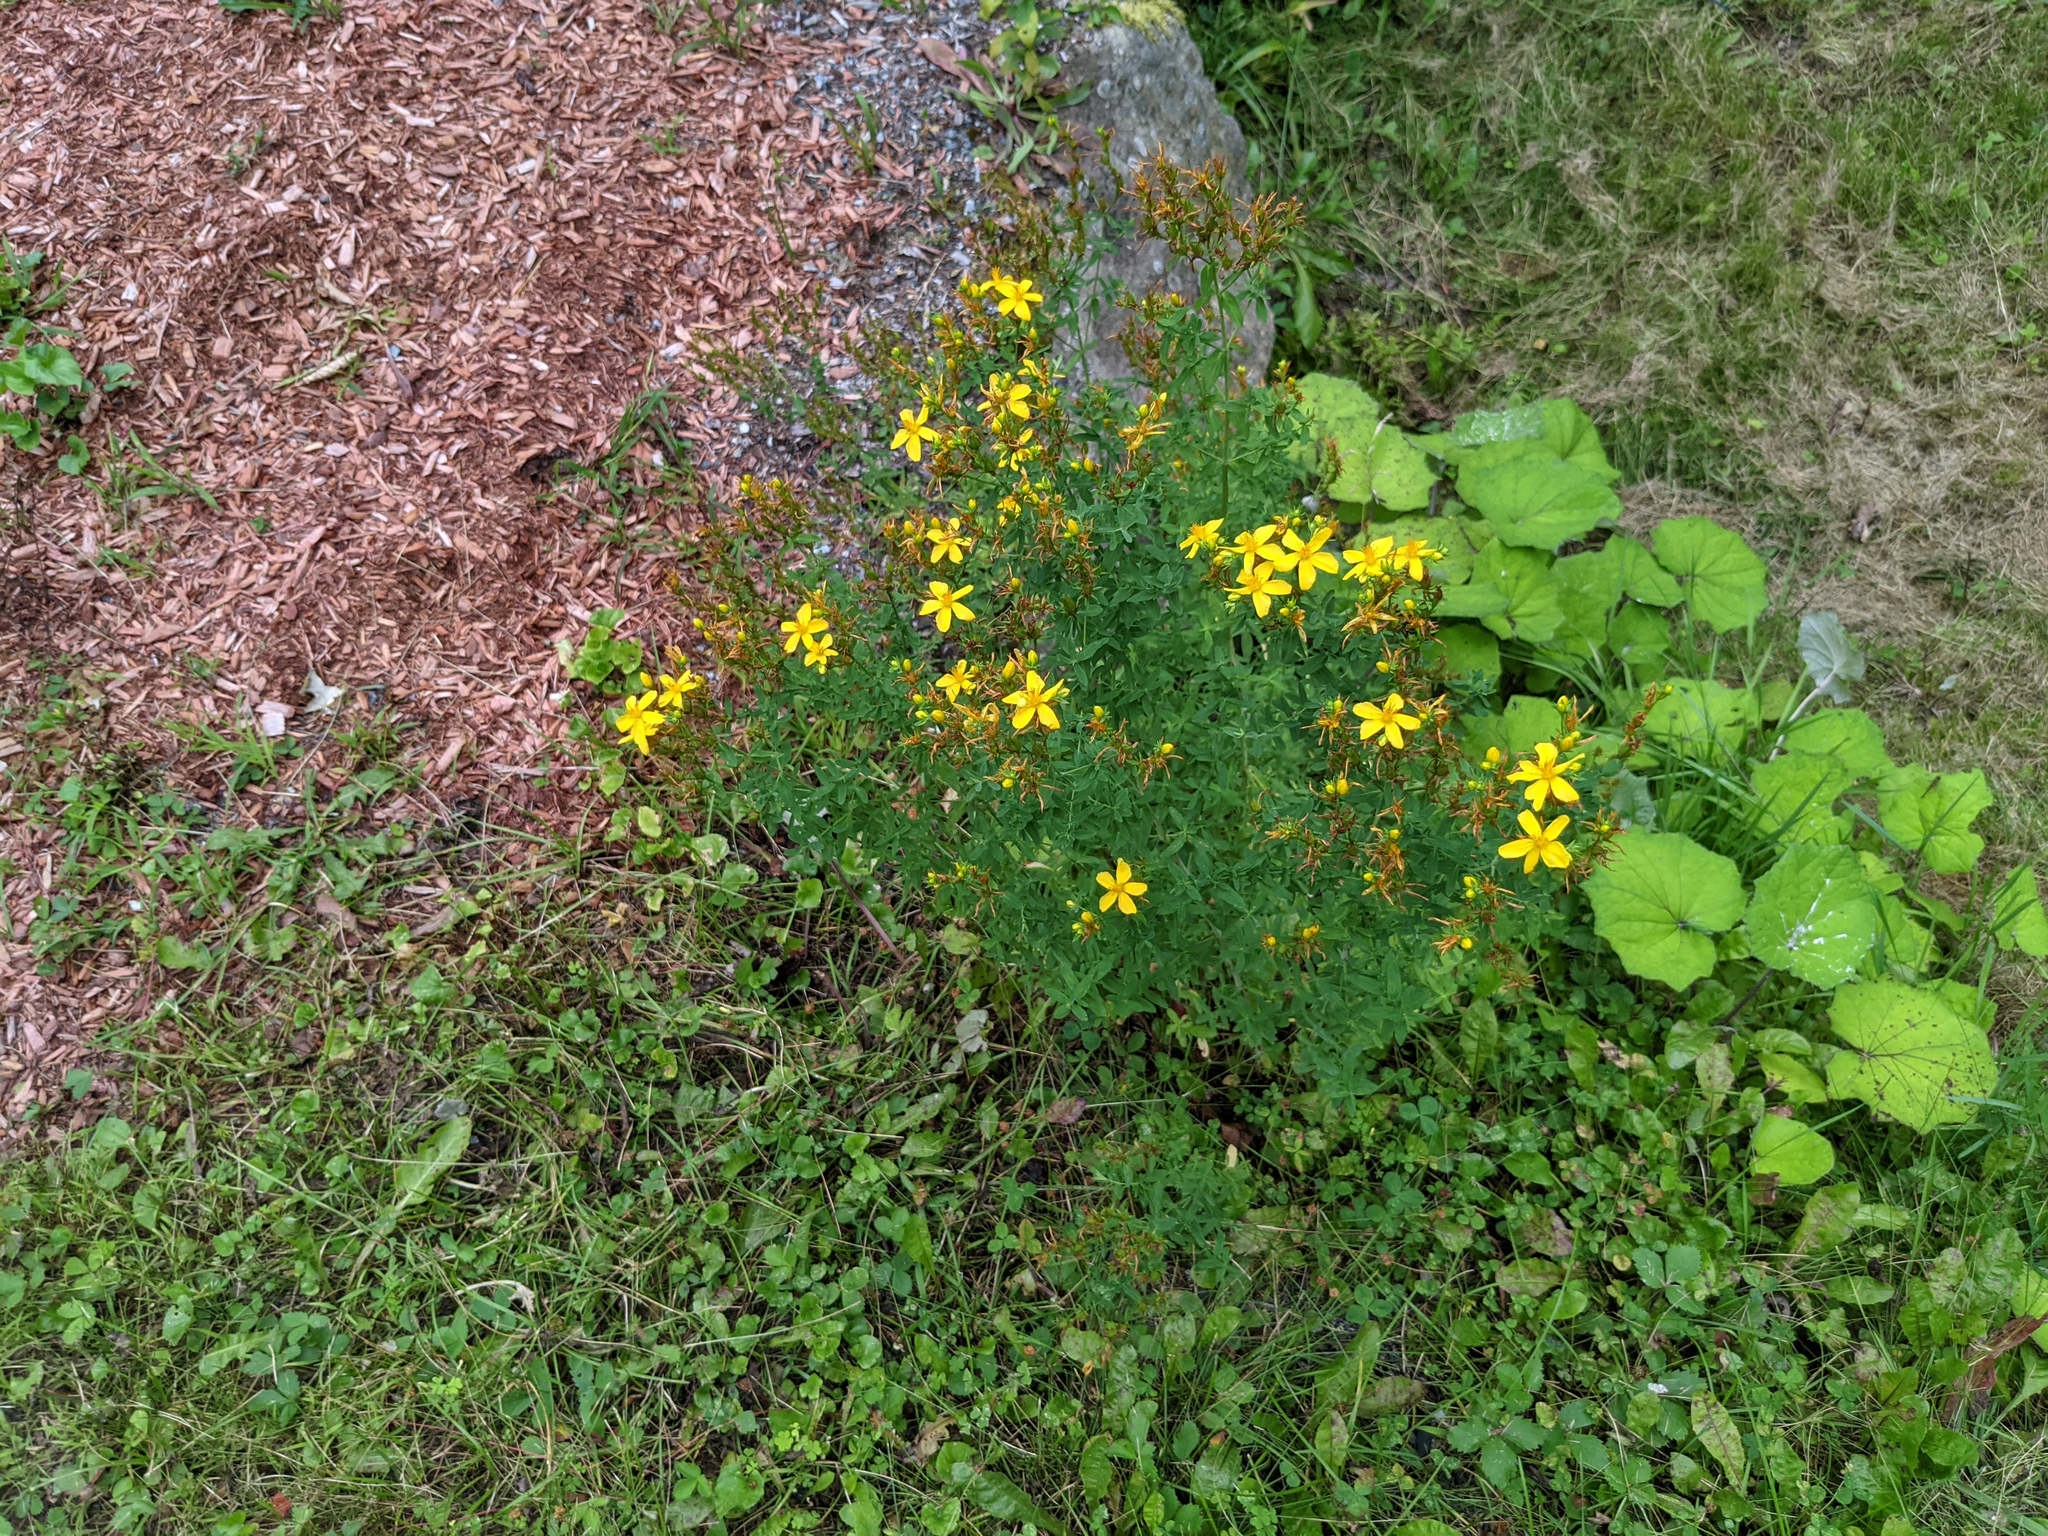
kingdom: Plantae
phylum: Tracheophyta
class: Magnoliopsida
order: Malpighiales
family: Hypericaceae
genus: Hypericum
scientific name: Hypericum perforatum
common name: Common st. johnswort
